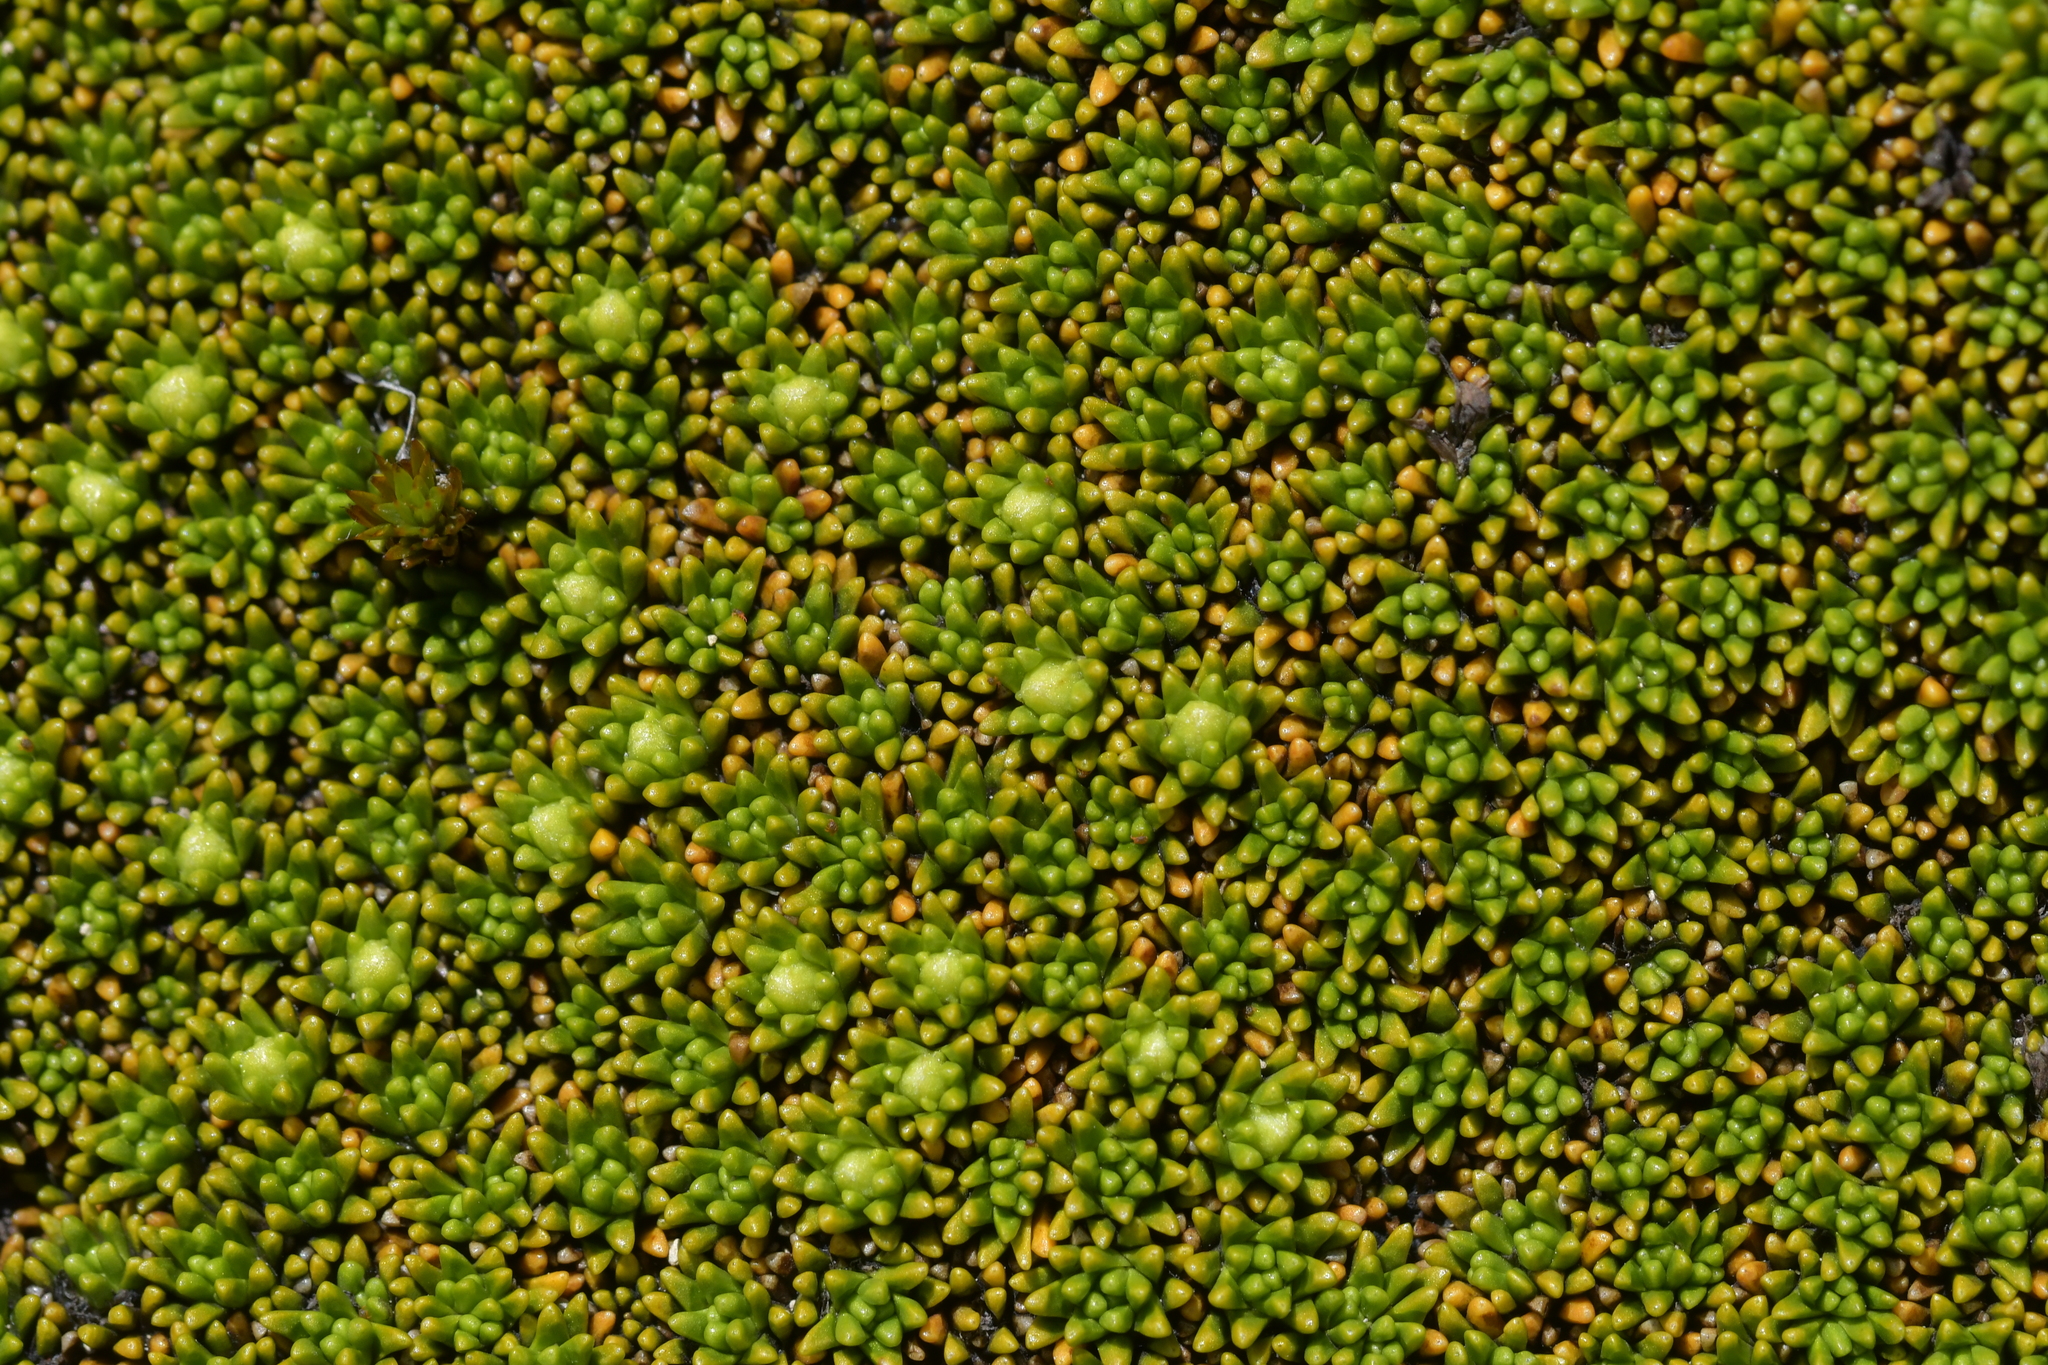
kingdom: Plantae
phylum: Tracheophyta
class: Magnoliopsida
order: Asterales
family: Stylidiaceae
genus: Phyllachne
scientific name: Phyllachne colensoi
